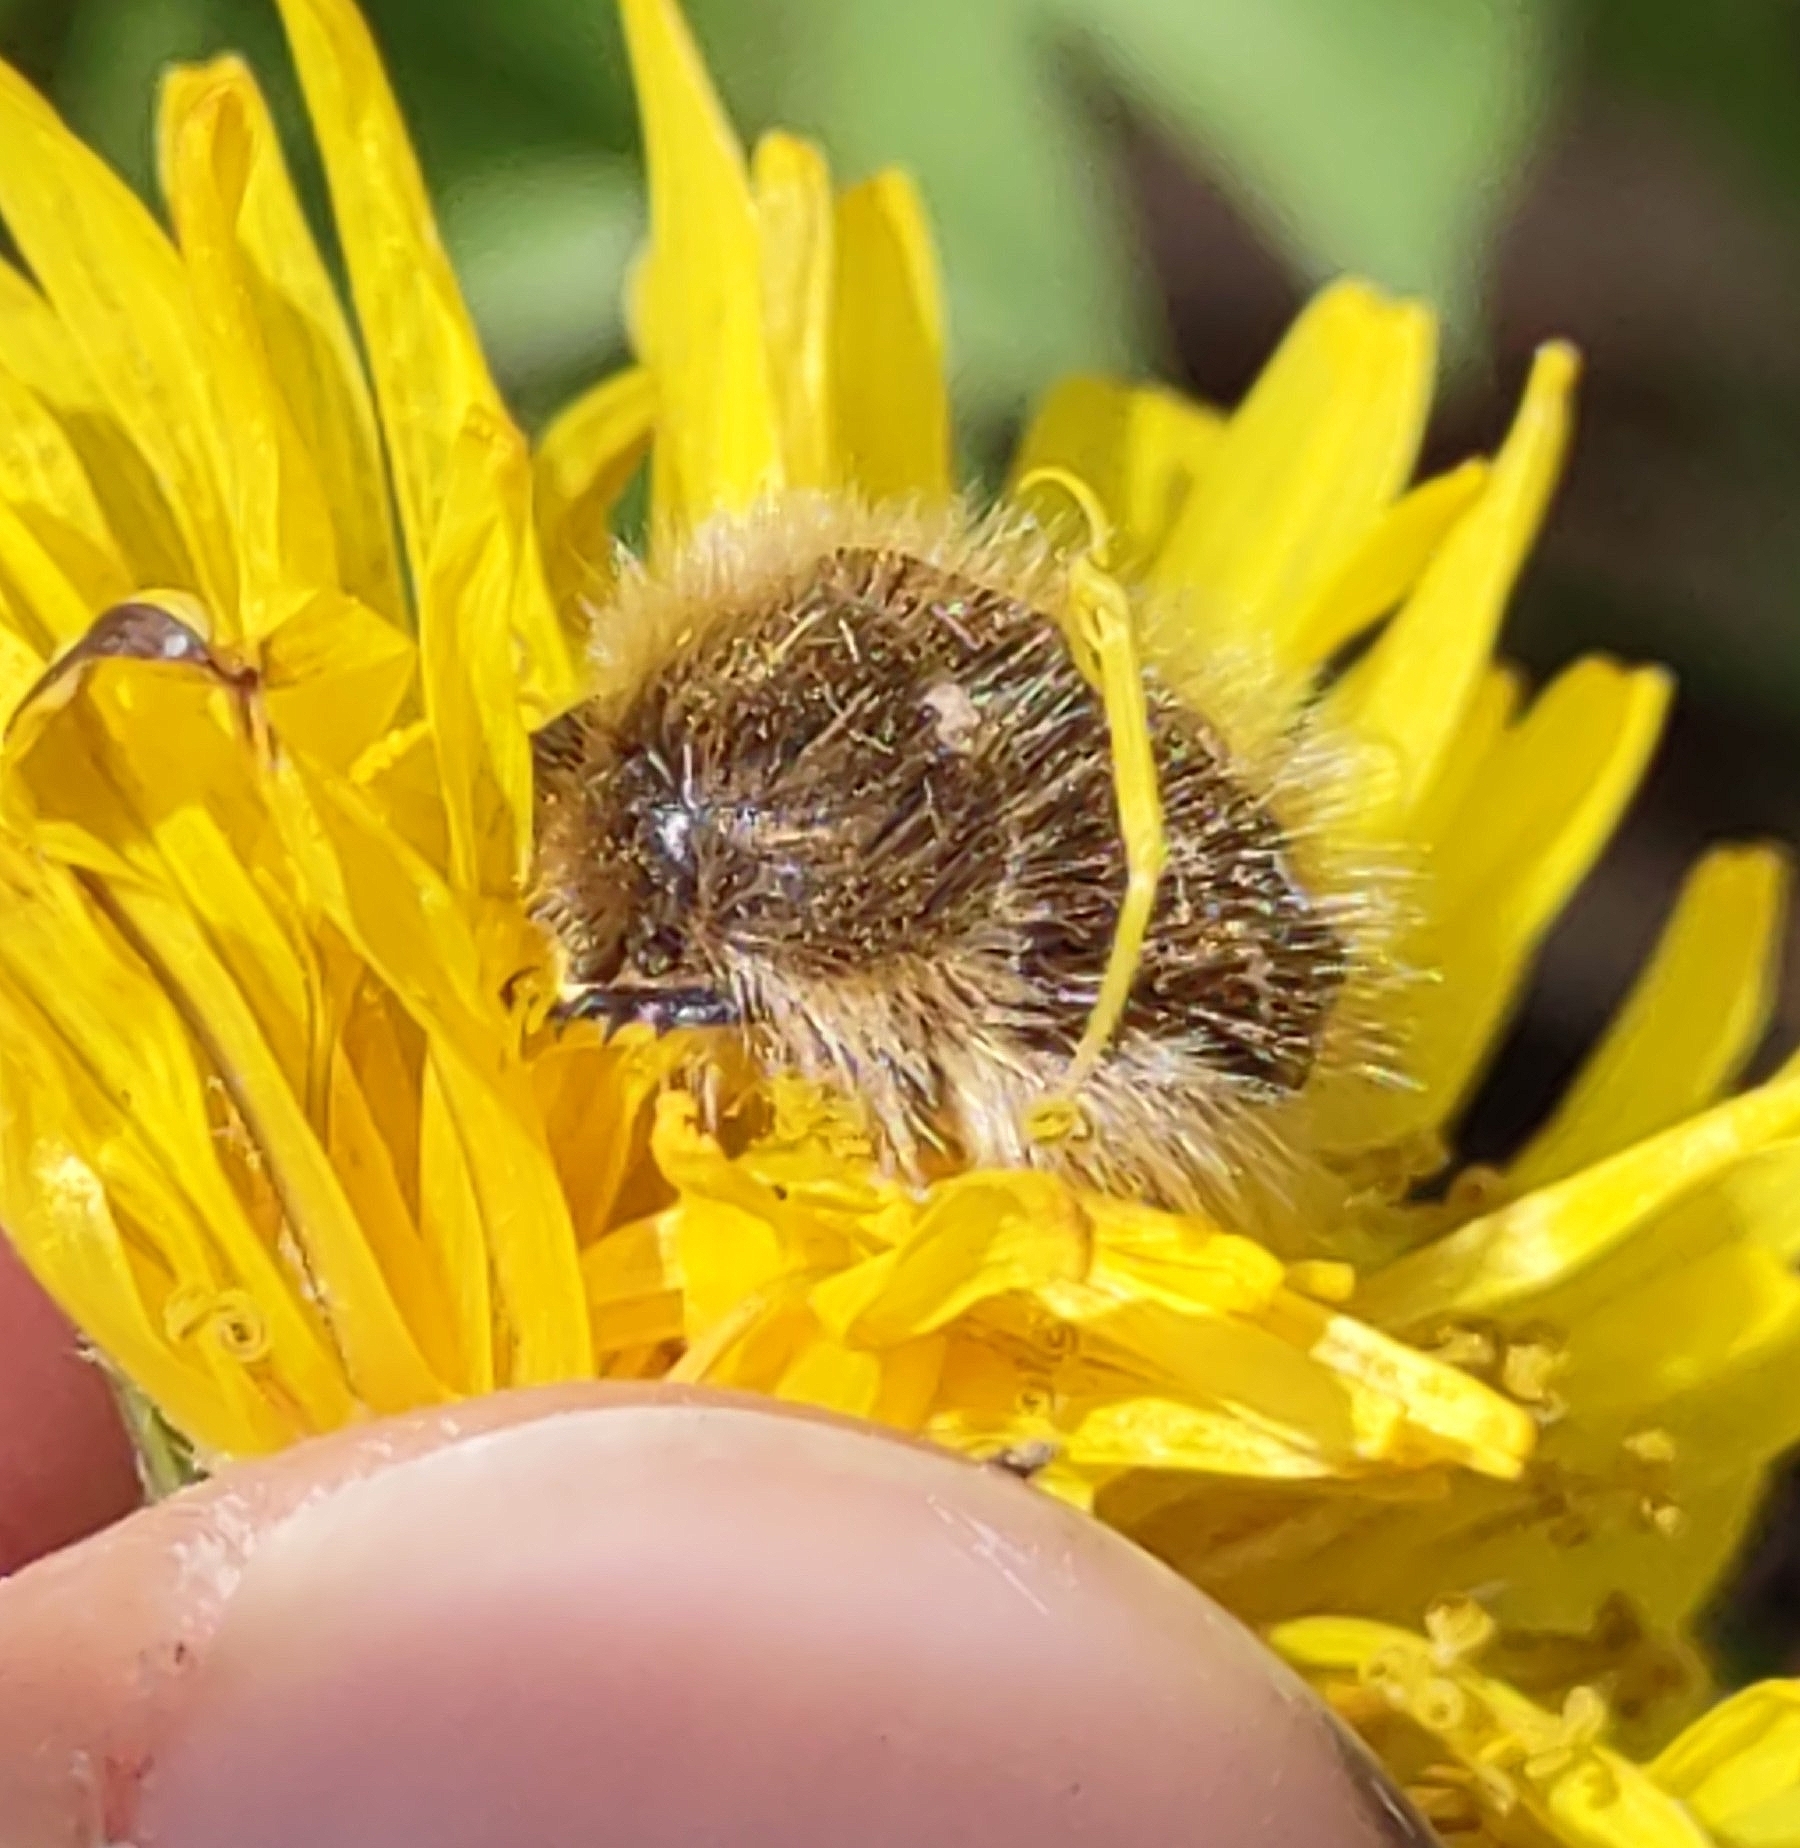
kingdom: Animalia
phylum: Arthropoda
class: Insecta
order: Coleoptera
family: Scarabaeidae
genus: Tropinota
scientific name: Tropinota hirta
